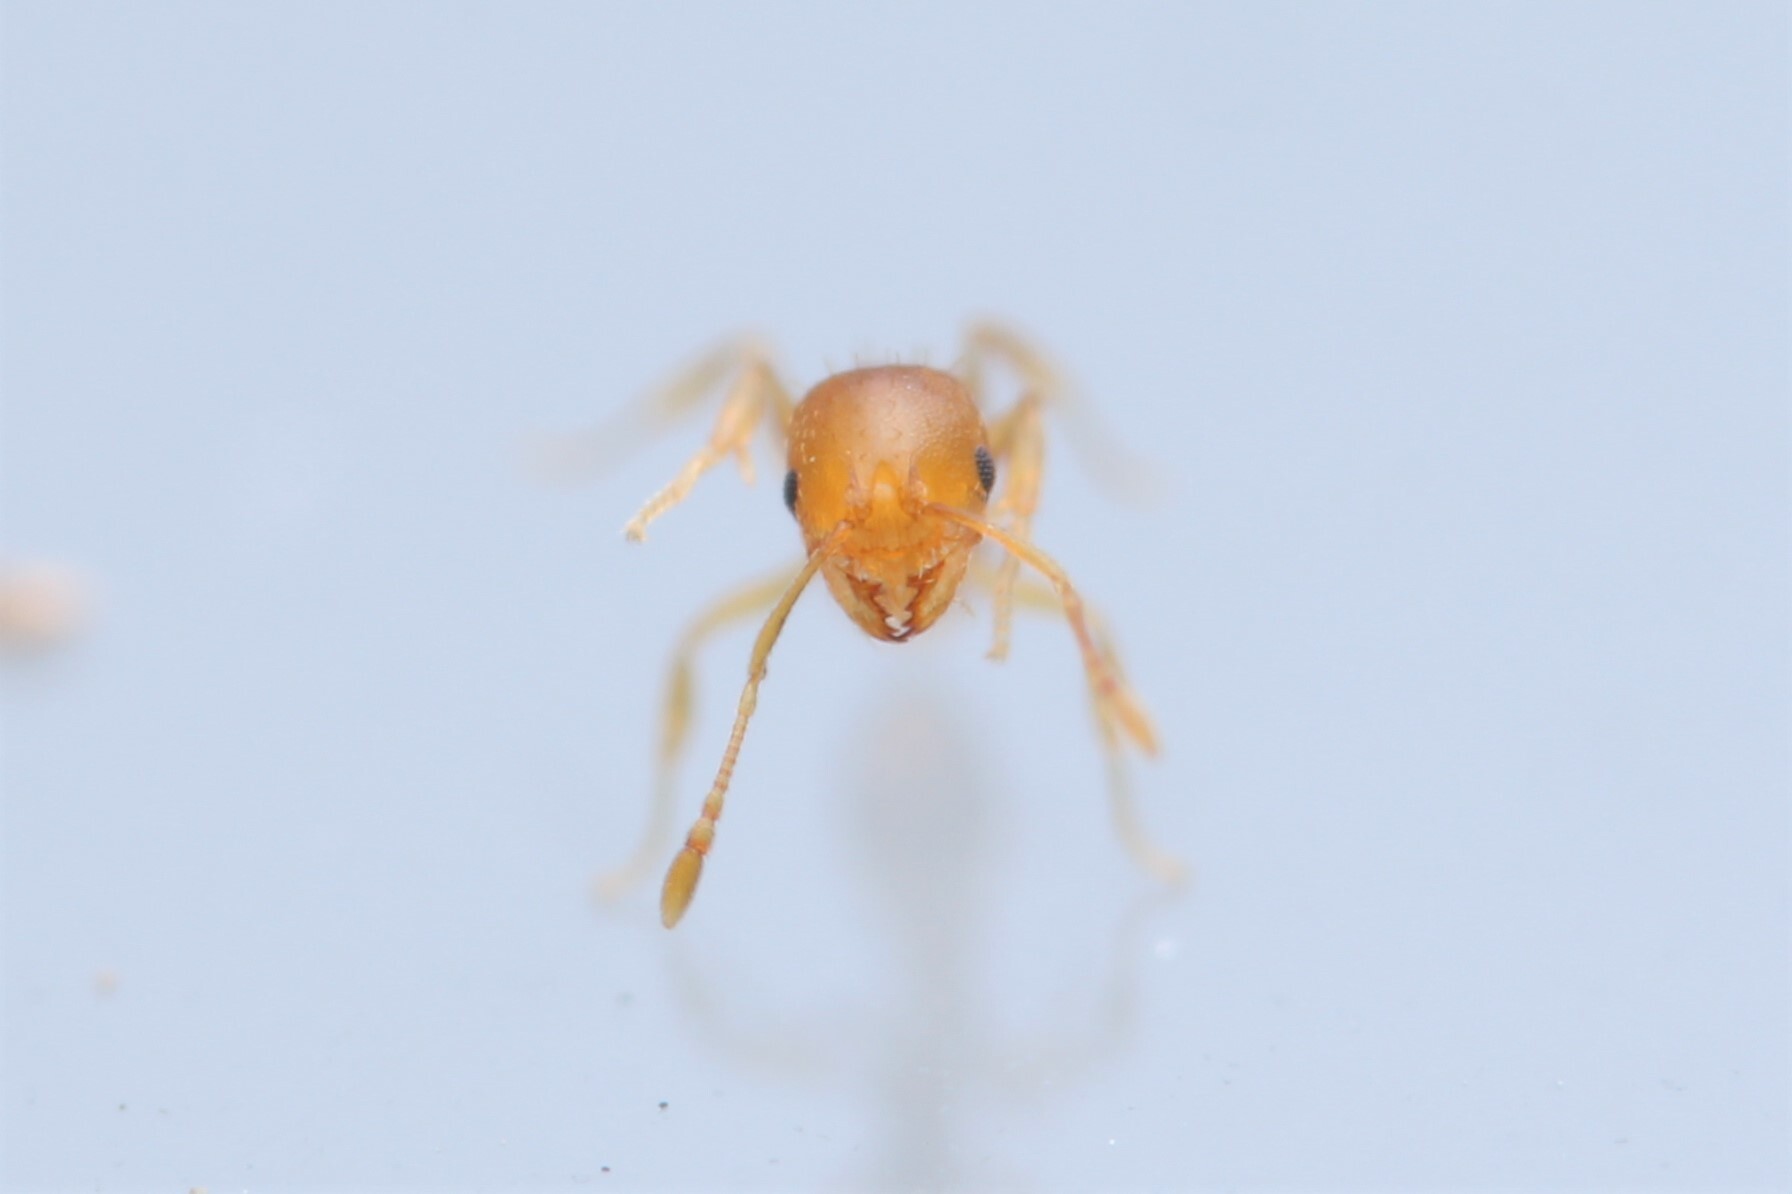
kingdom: Animalia
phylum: Arthropoda
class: Insecta
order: Hymenoptera
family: Formicidae
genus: Recurvidris
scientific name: Recurvidris recurvispinosa
